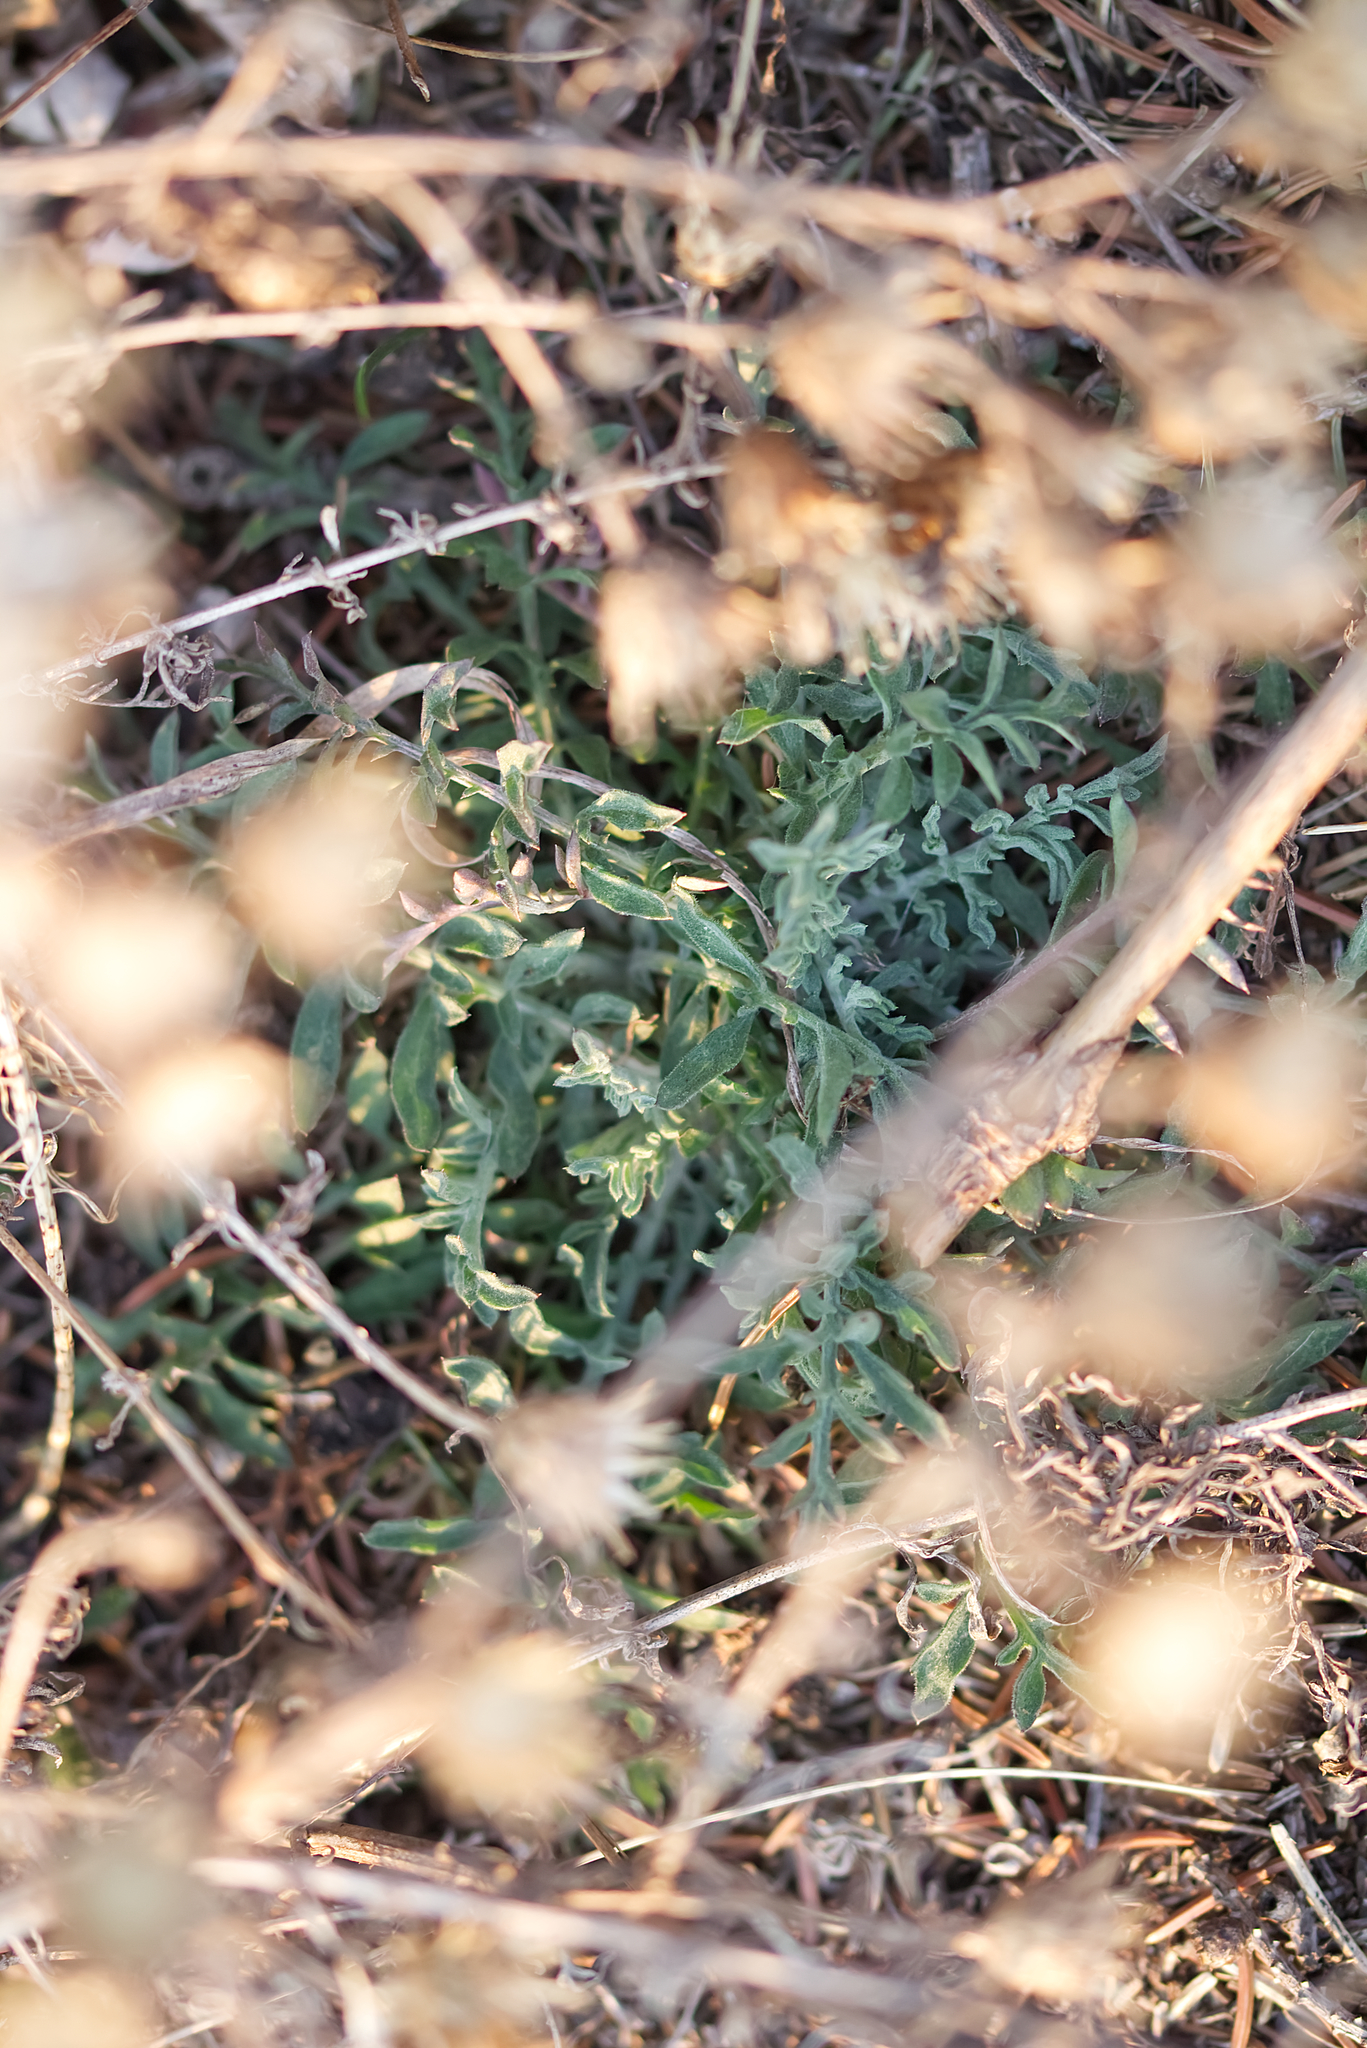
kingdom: Plantae
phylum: Tracheophyta
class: Magnoliopsida
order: Asterales
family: Asteraceae
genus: Centaurea
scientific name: Centaurea stoebe
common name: Spotted knapweed
